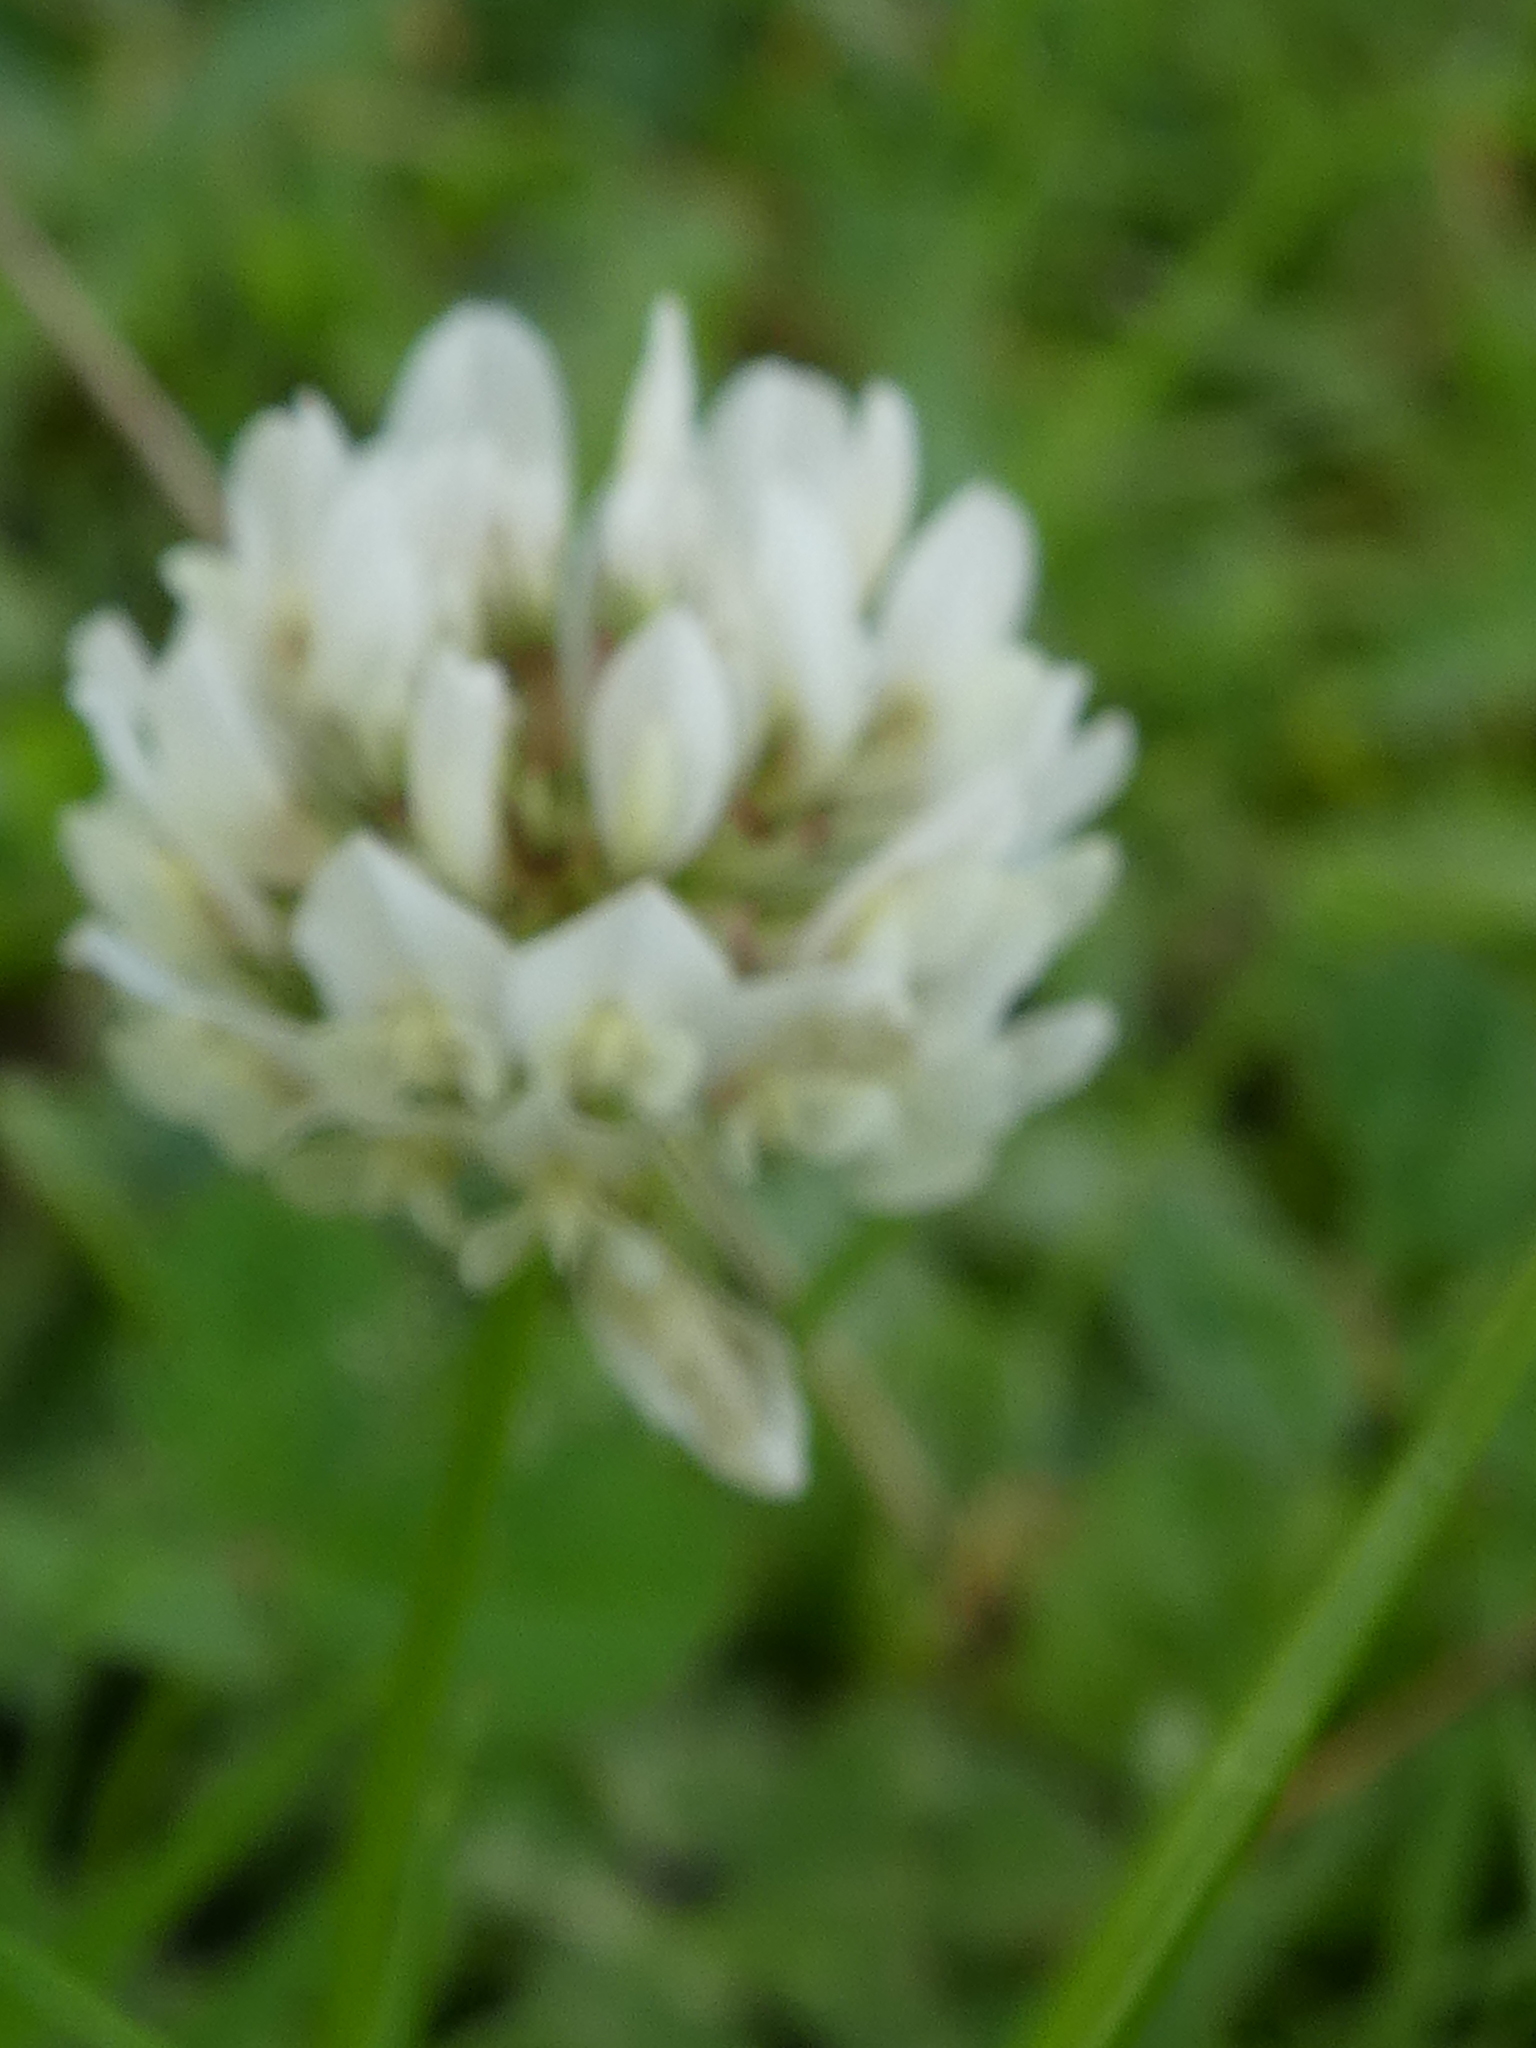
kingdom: Plantae
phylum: Tracheophyta
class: Magnoliopsida
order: Fabales
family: Fabaceae
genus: Trifolium
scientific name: Trifolium repens
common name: White clover
